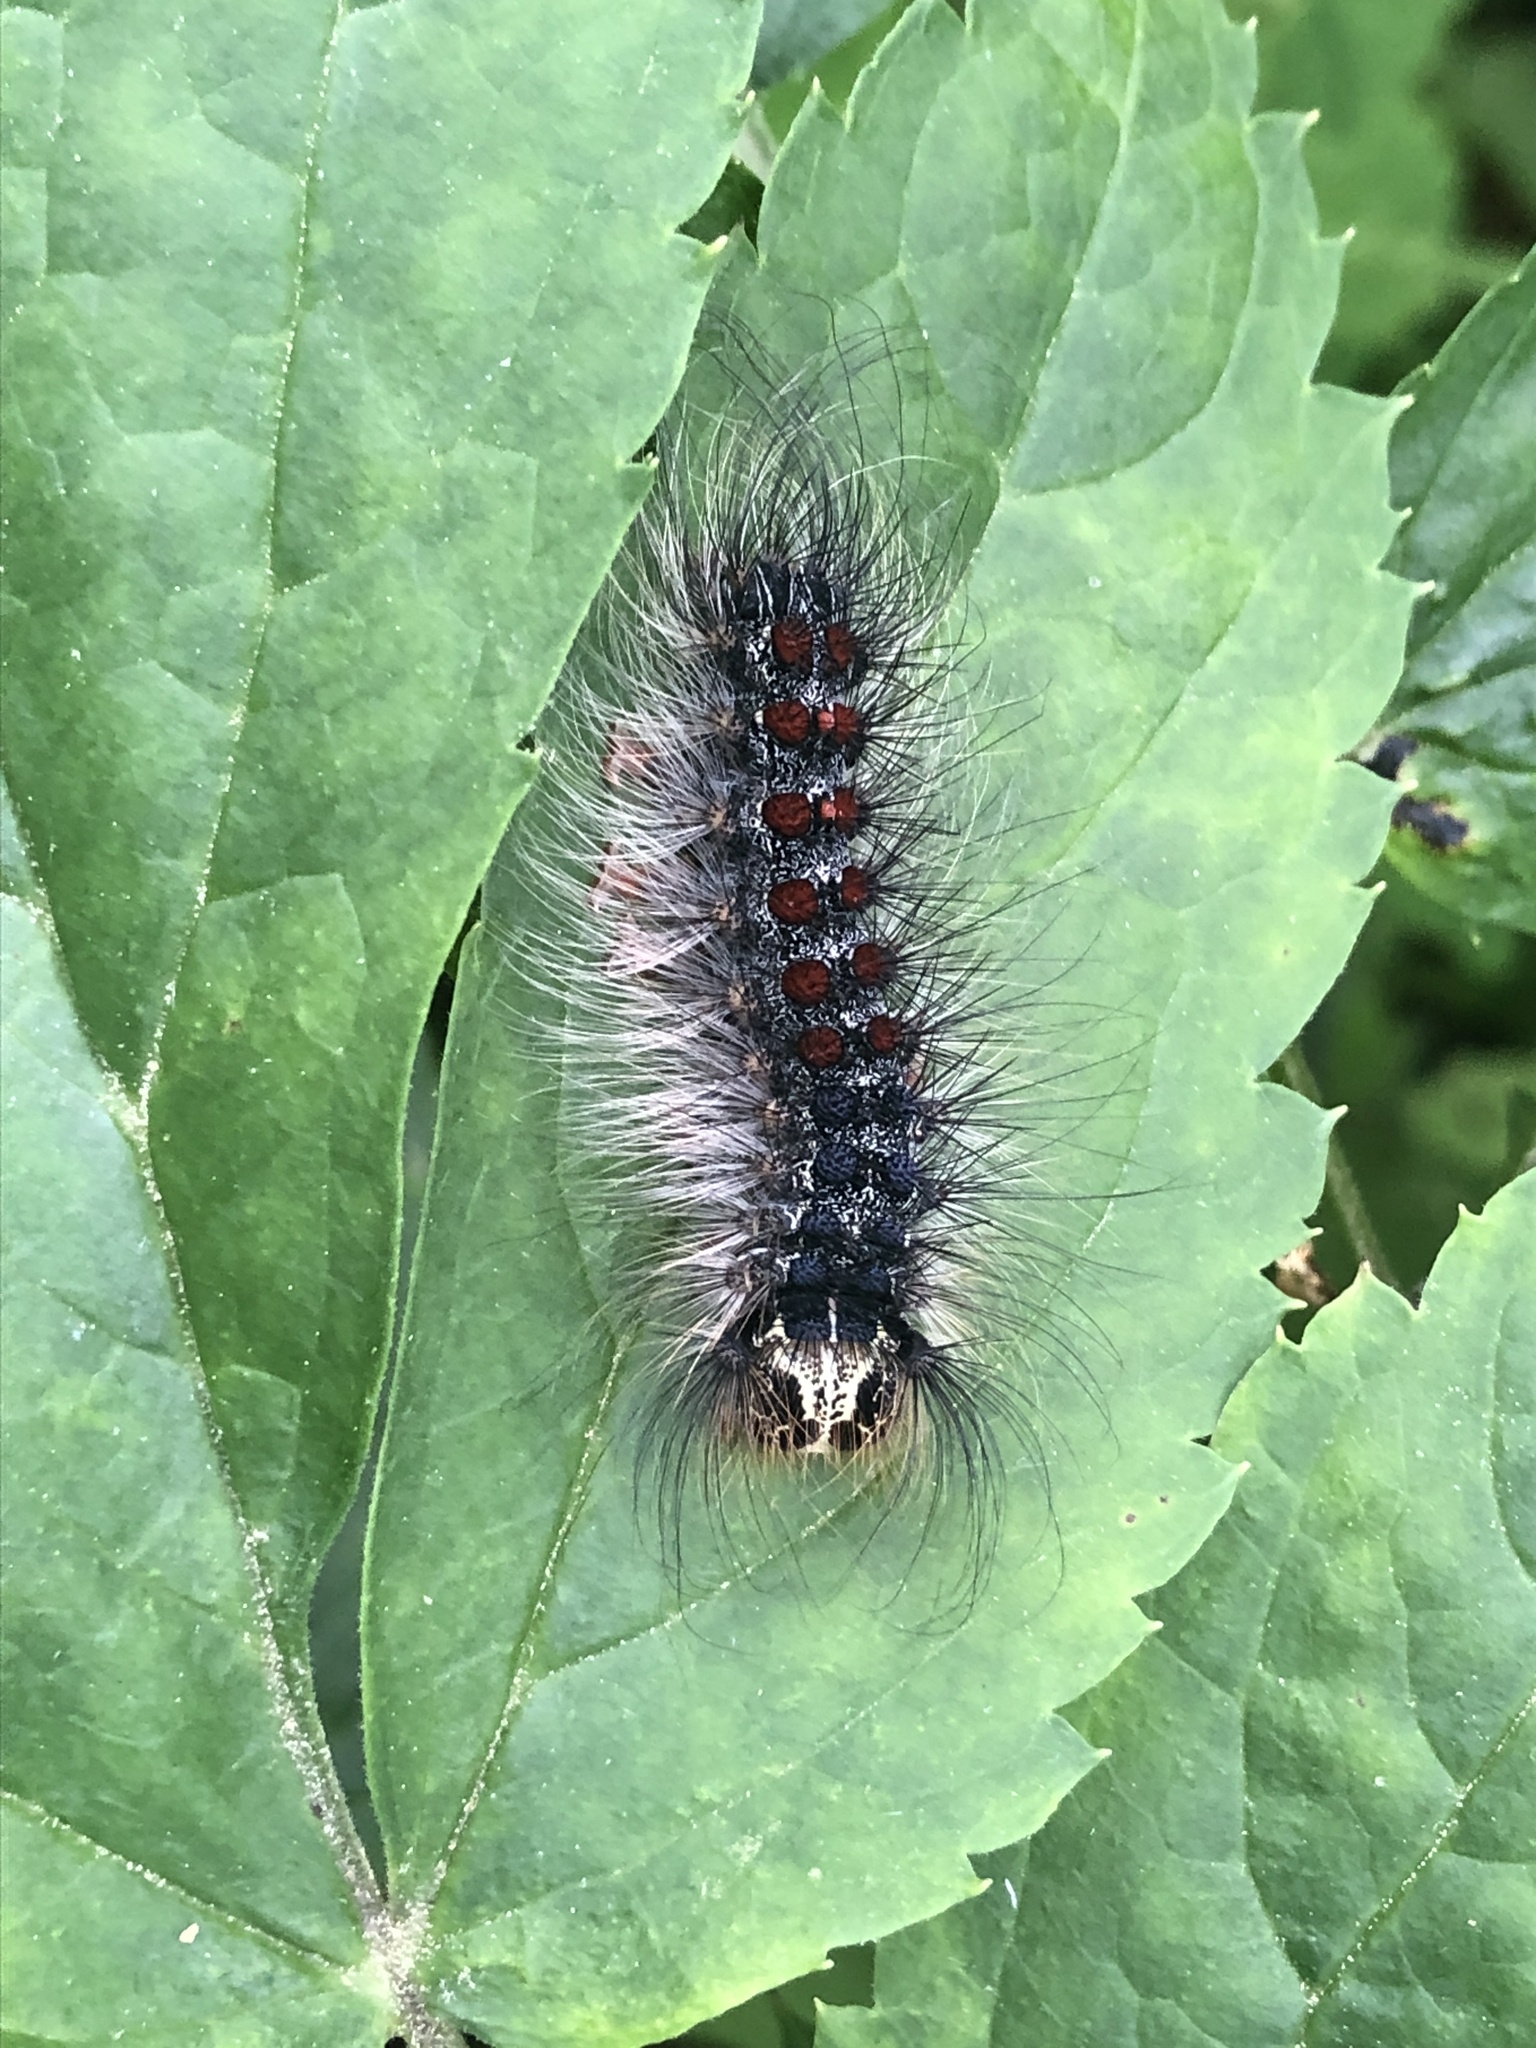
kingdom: Animalia
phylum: Arthropoda
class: Insecta
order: Lepidoptera
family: Erebidae
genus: Lymantria
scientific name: Lymantria dispar
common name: Gypsy moth
